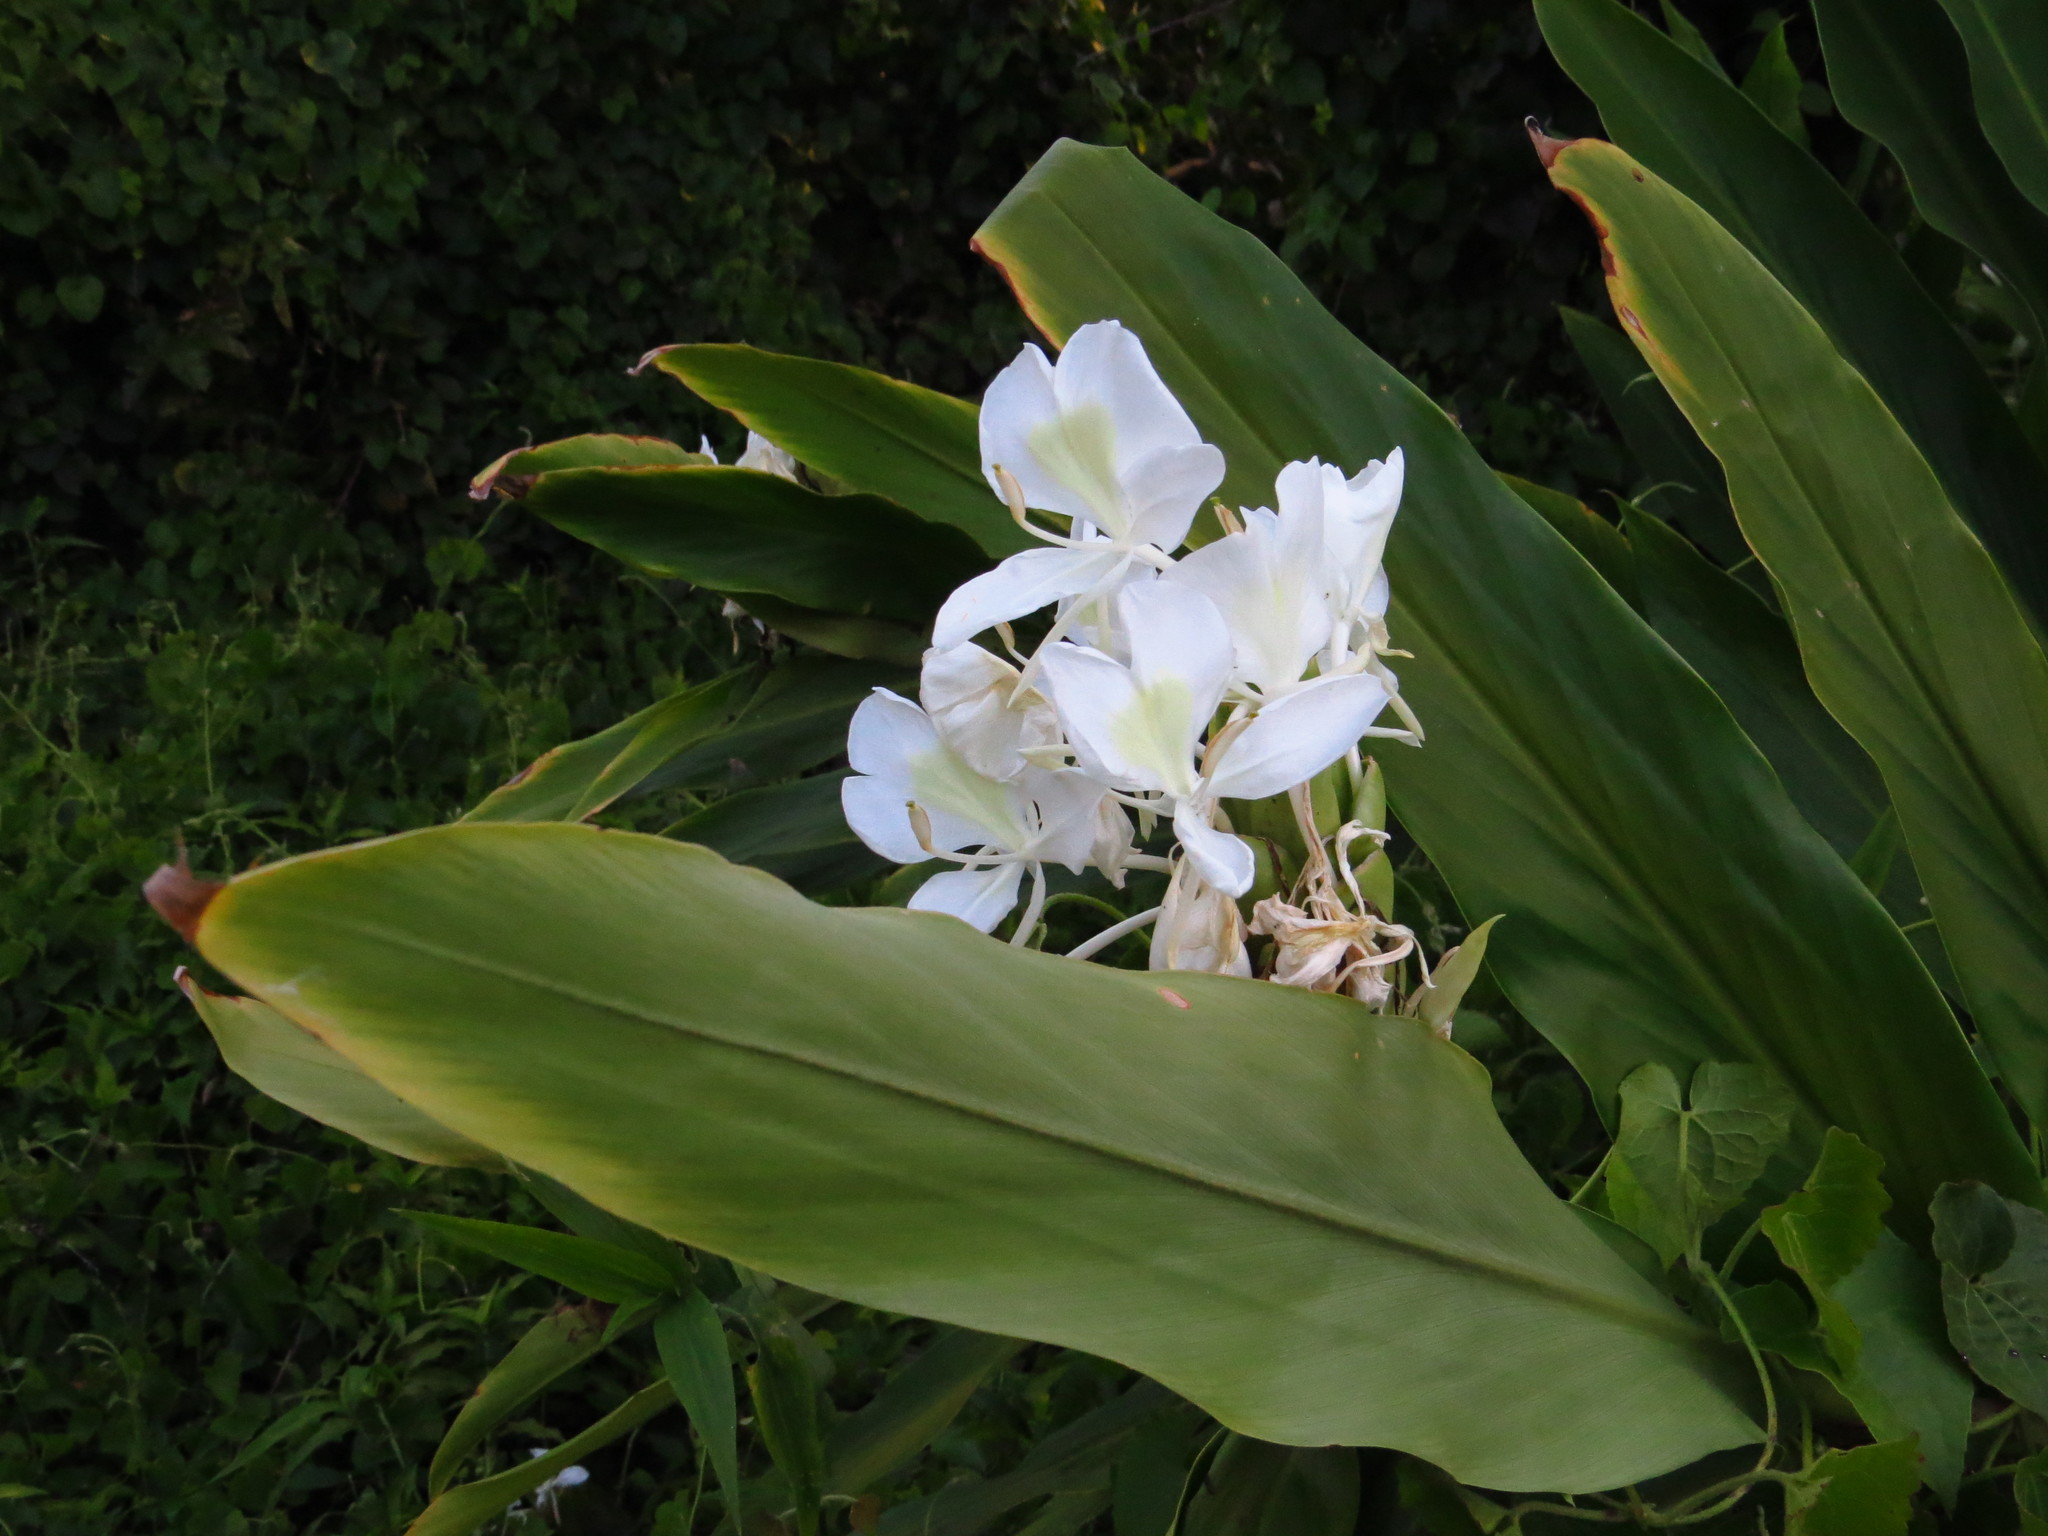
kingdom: Plantae
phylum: Tracheophyta
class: Liliopsida
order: Zingiberales
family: Zingiberaceae
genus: Hedychium
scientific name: Hedychium coronarium
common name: White garland-lily
